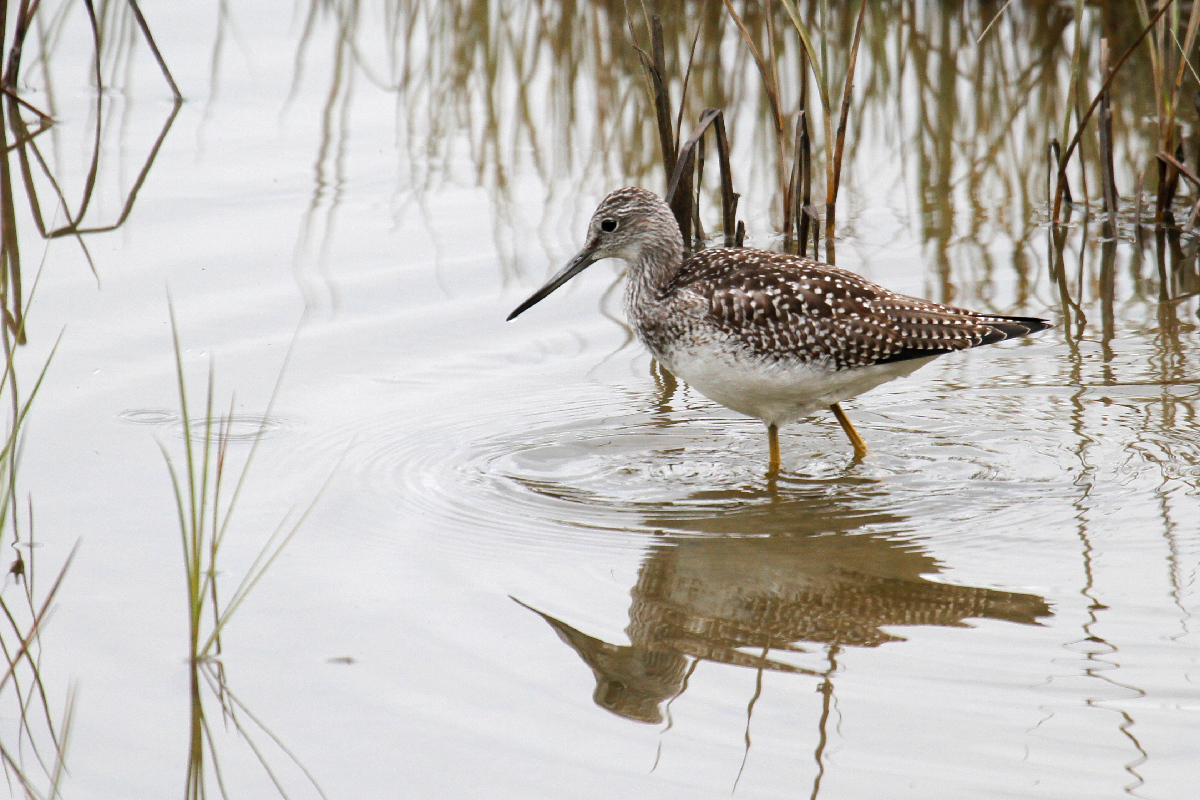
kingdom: Animalia
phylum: Chordata
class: Aves
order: Charadriiformes
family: Scolopacidae
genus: Tringa
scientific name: Tringa melanoleuca
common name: Greater yellowlegs
